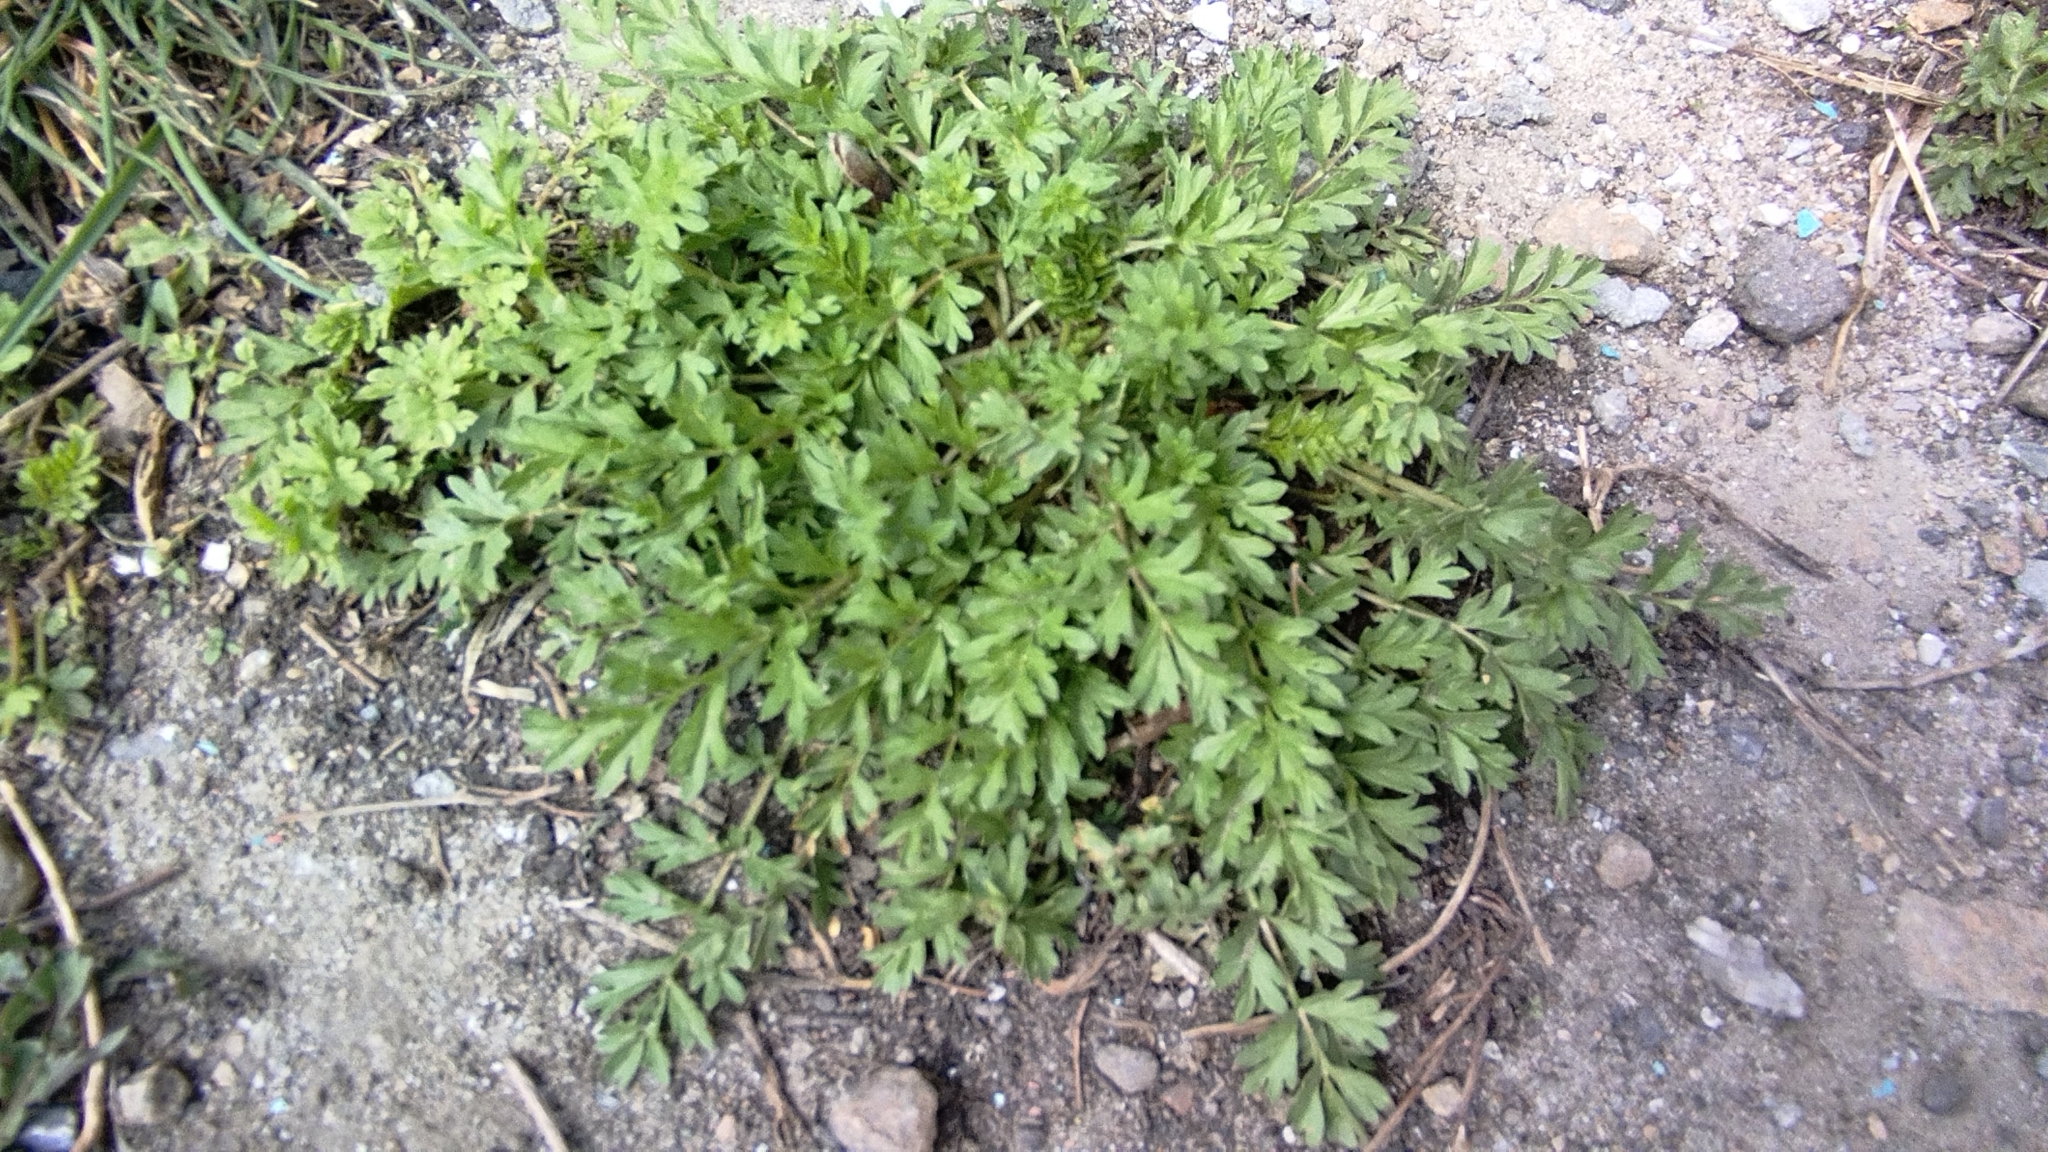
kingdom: Plantae
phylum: Tracheophyta
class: Magnoliopsida
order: Rosales
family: Rosaceae
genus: Potentilla
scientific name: Potentilla supina
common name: Prostrate cinquefoil
